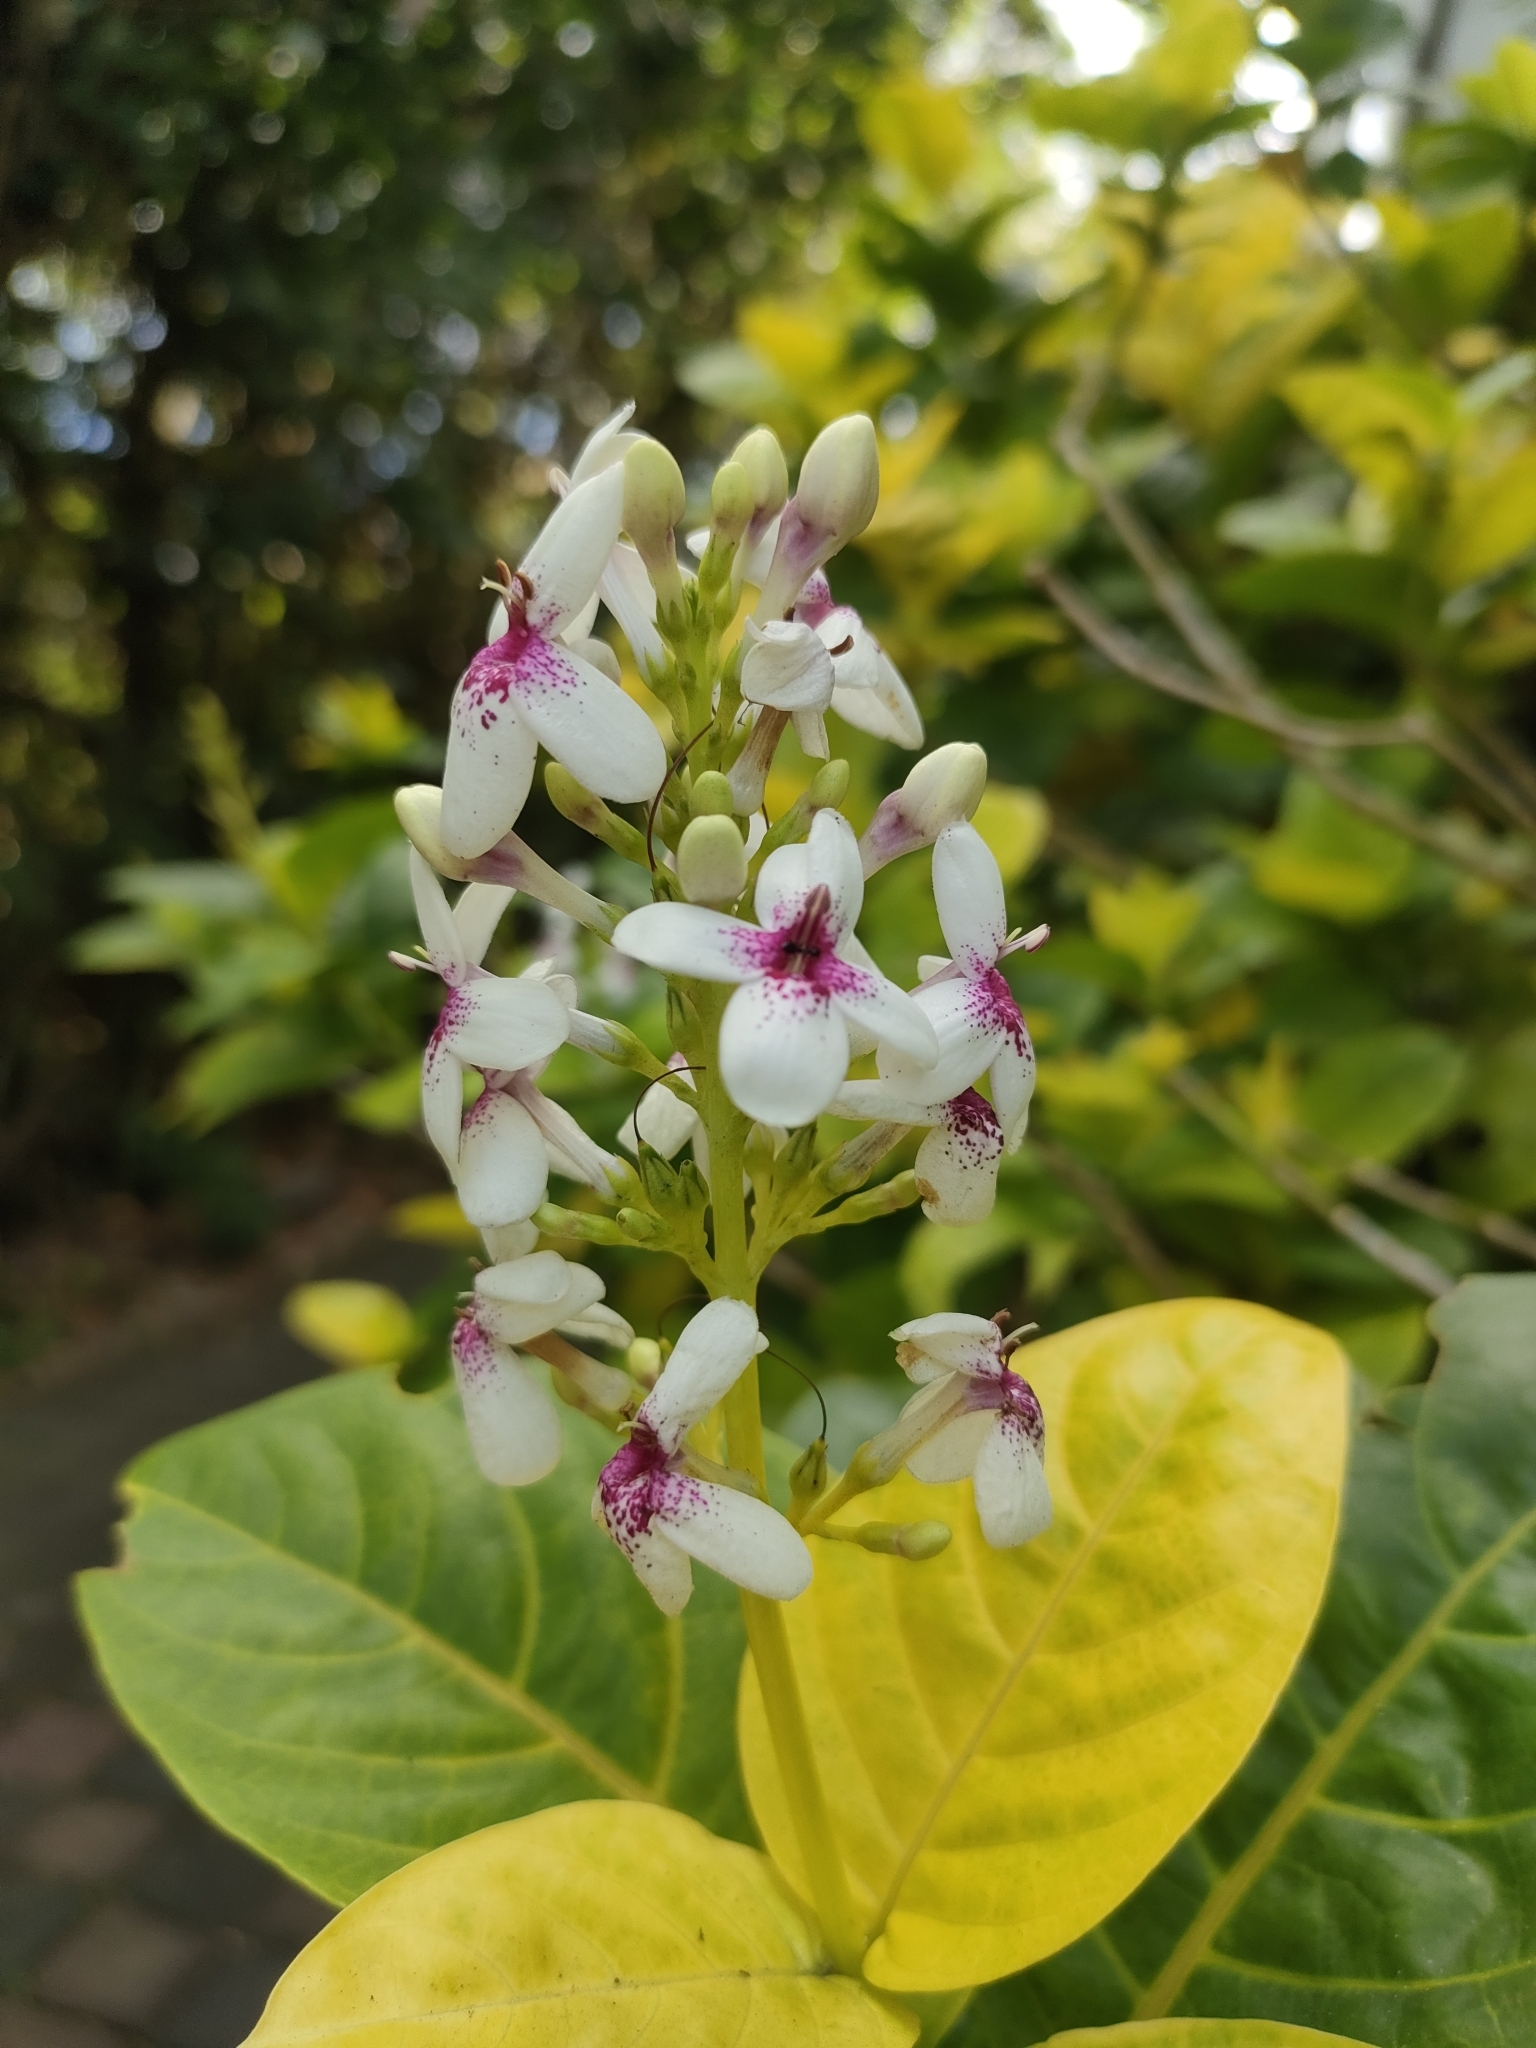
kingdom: Plantae
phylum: Tracheophyta
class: Magnoliopsida
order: Lamiales
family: Acanthaceae
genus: Pseuderanthemum
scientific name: Pseuderanthemum maculatum
